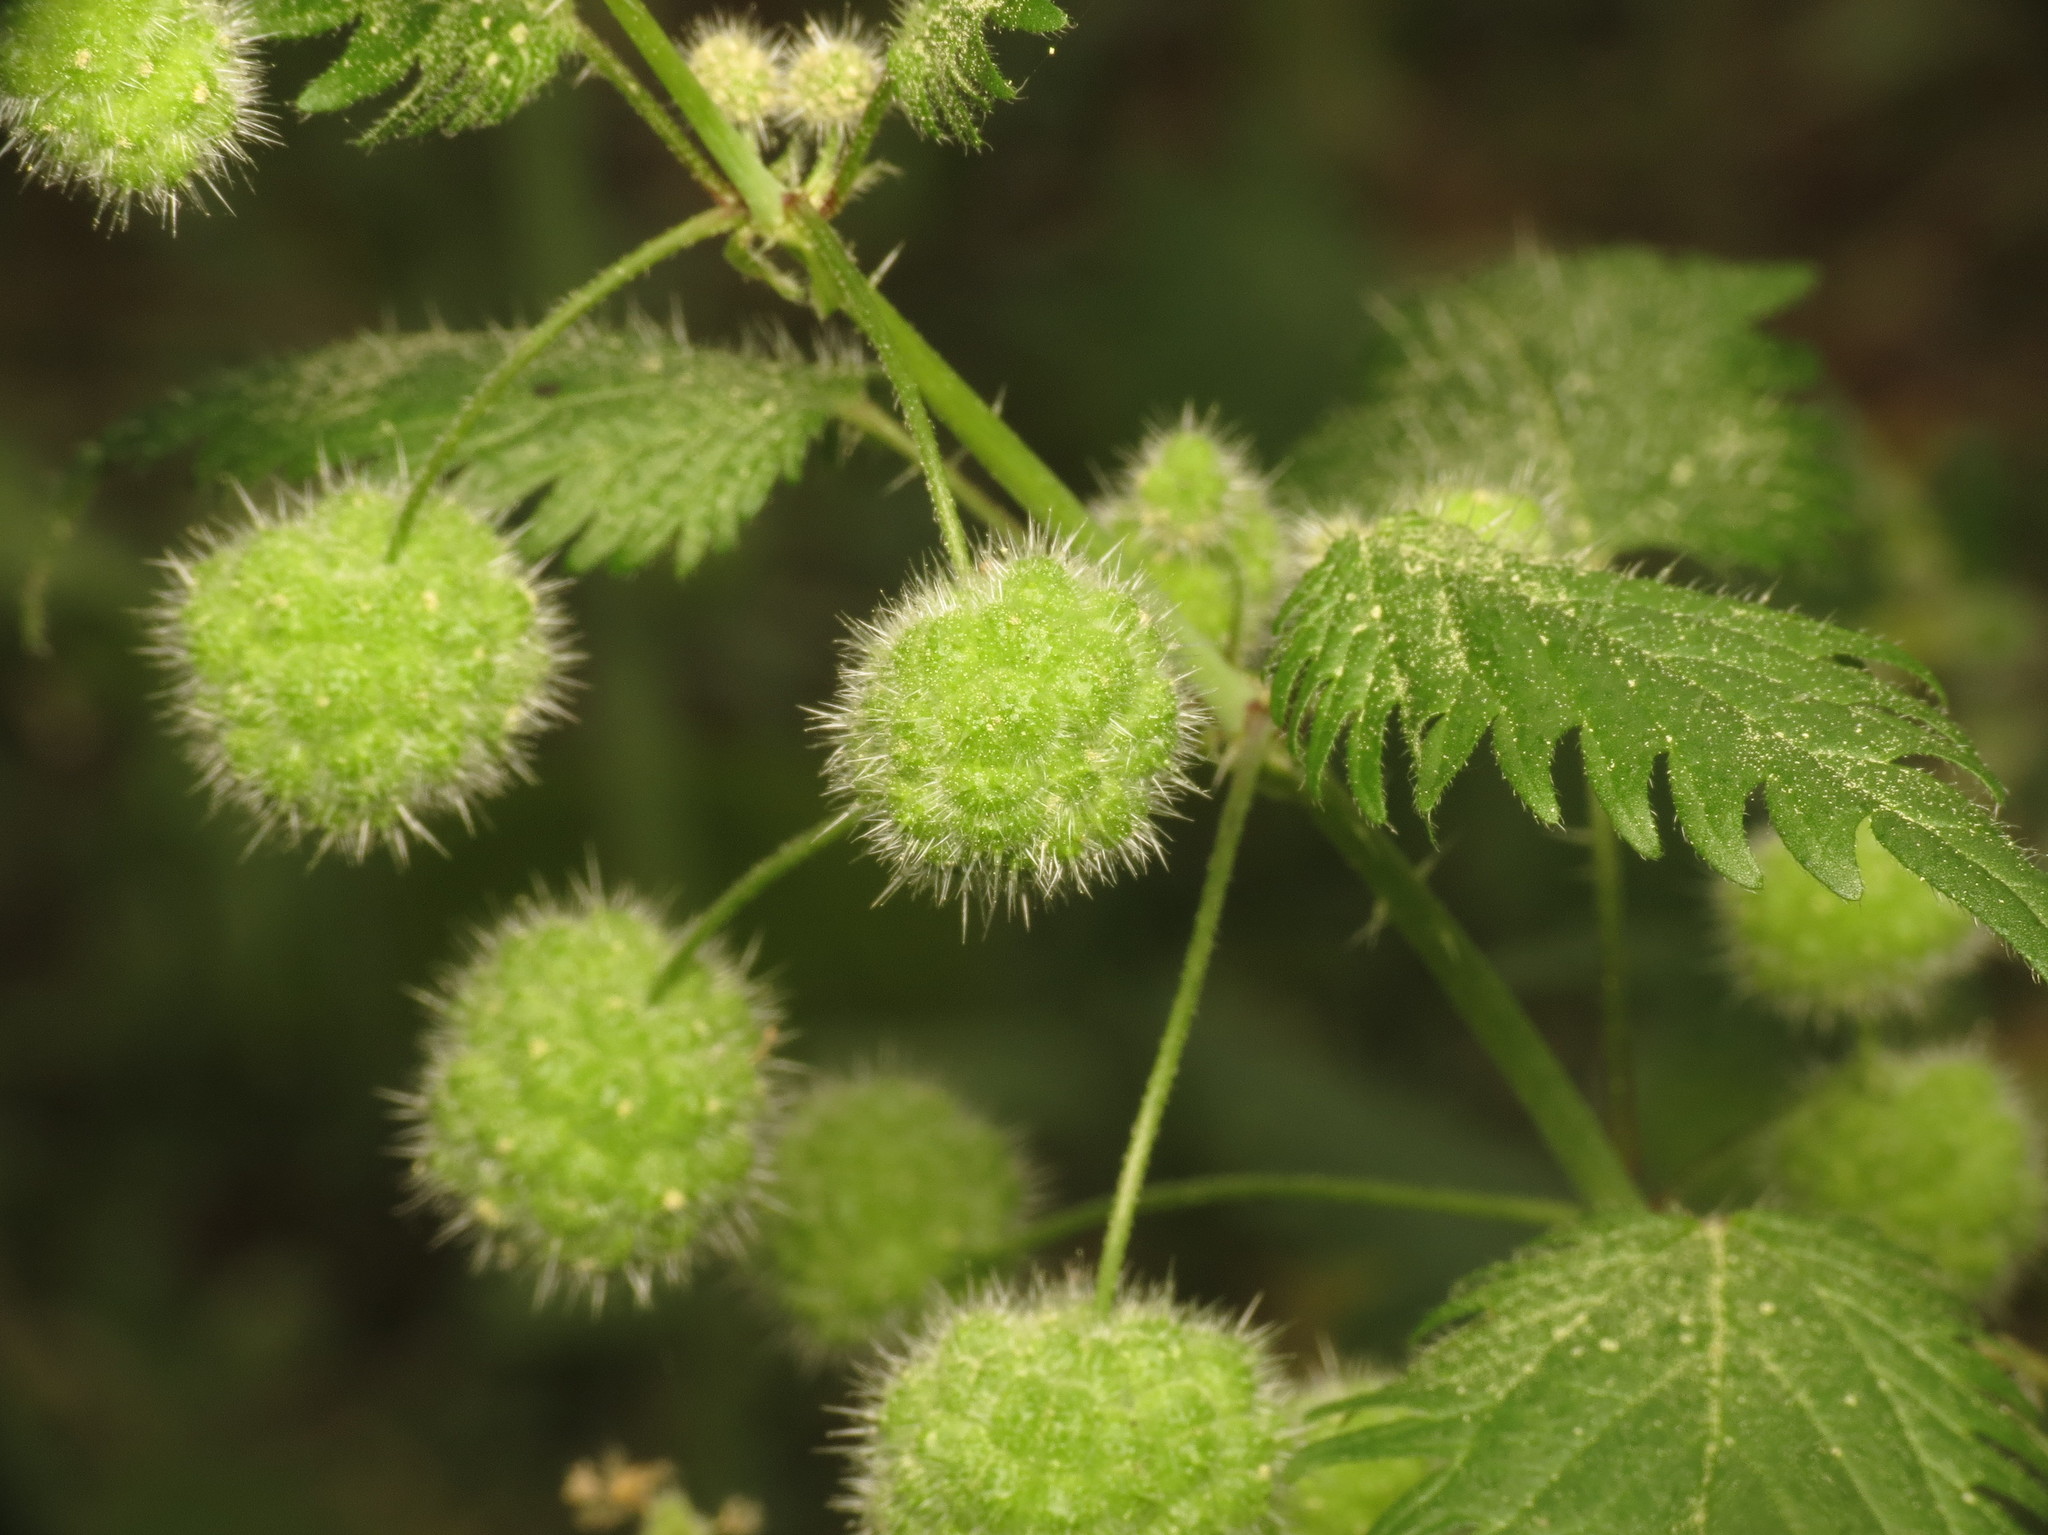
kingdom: Plantae
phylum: Tracheophyta
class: Magnoliopsida
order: Rosales
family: Urticaceae
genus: Urtica
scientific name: Urtica pilulifera
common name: Roman nettle
